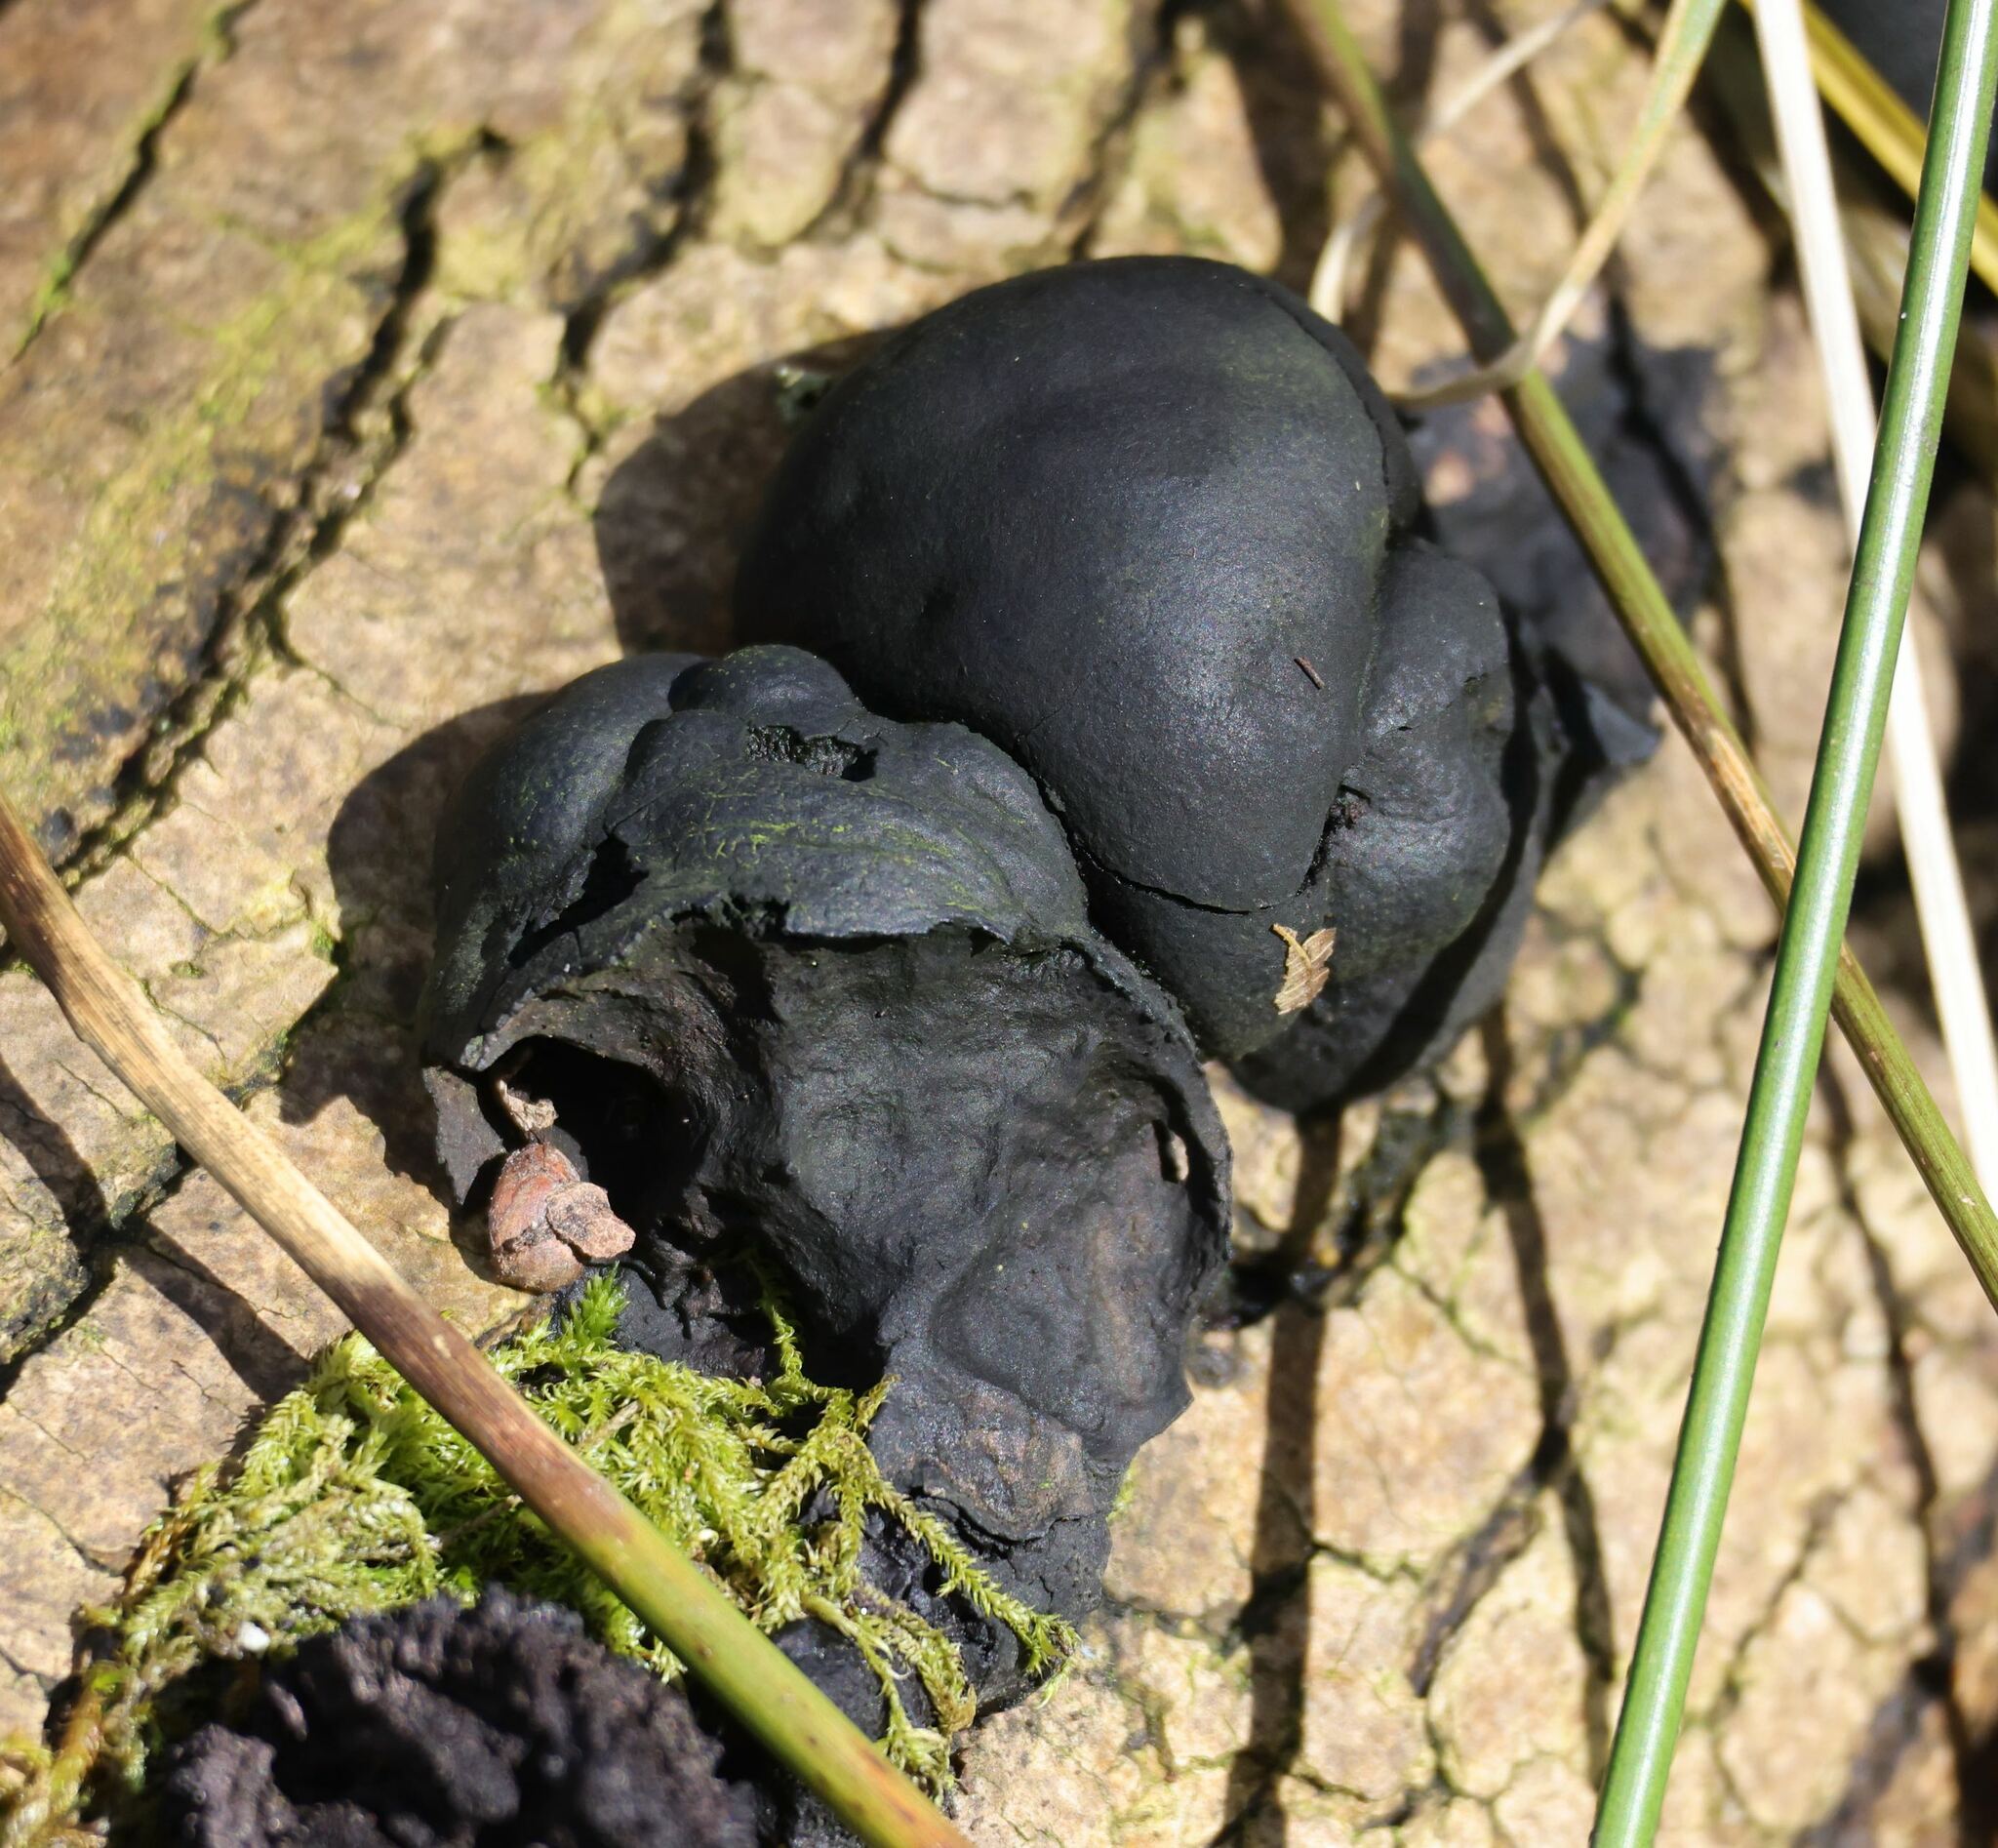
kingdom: Fungi
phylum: Ascomycota
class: Sordariomycetes
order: Xylariales
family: Hypoxylaceae
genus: Daldinia
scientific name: Daldinia concentrica
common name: Cramp balls
